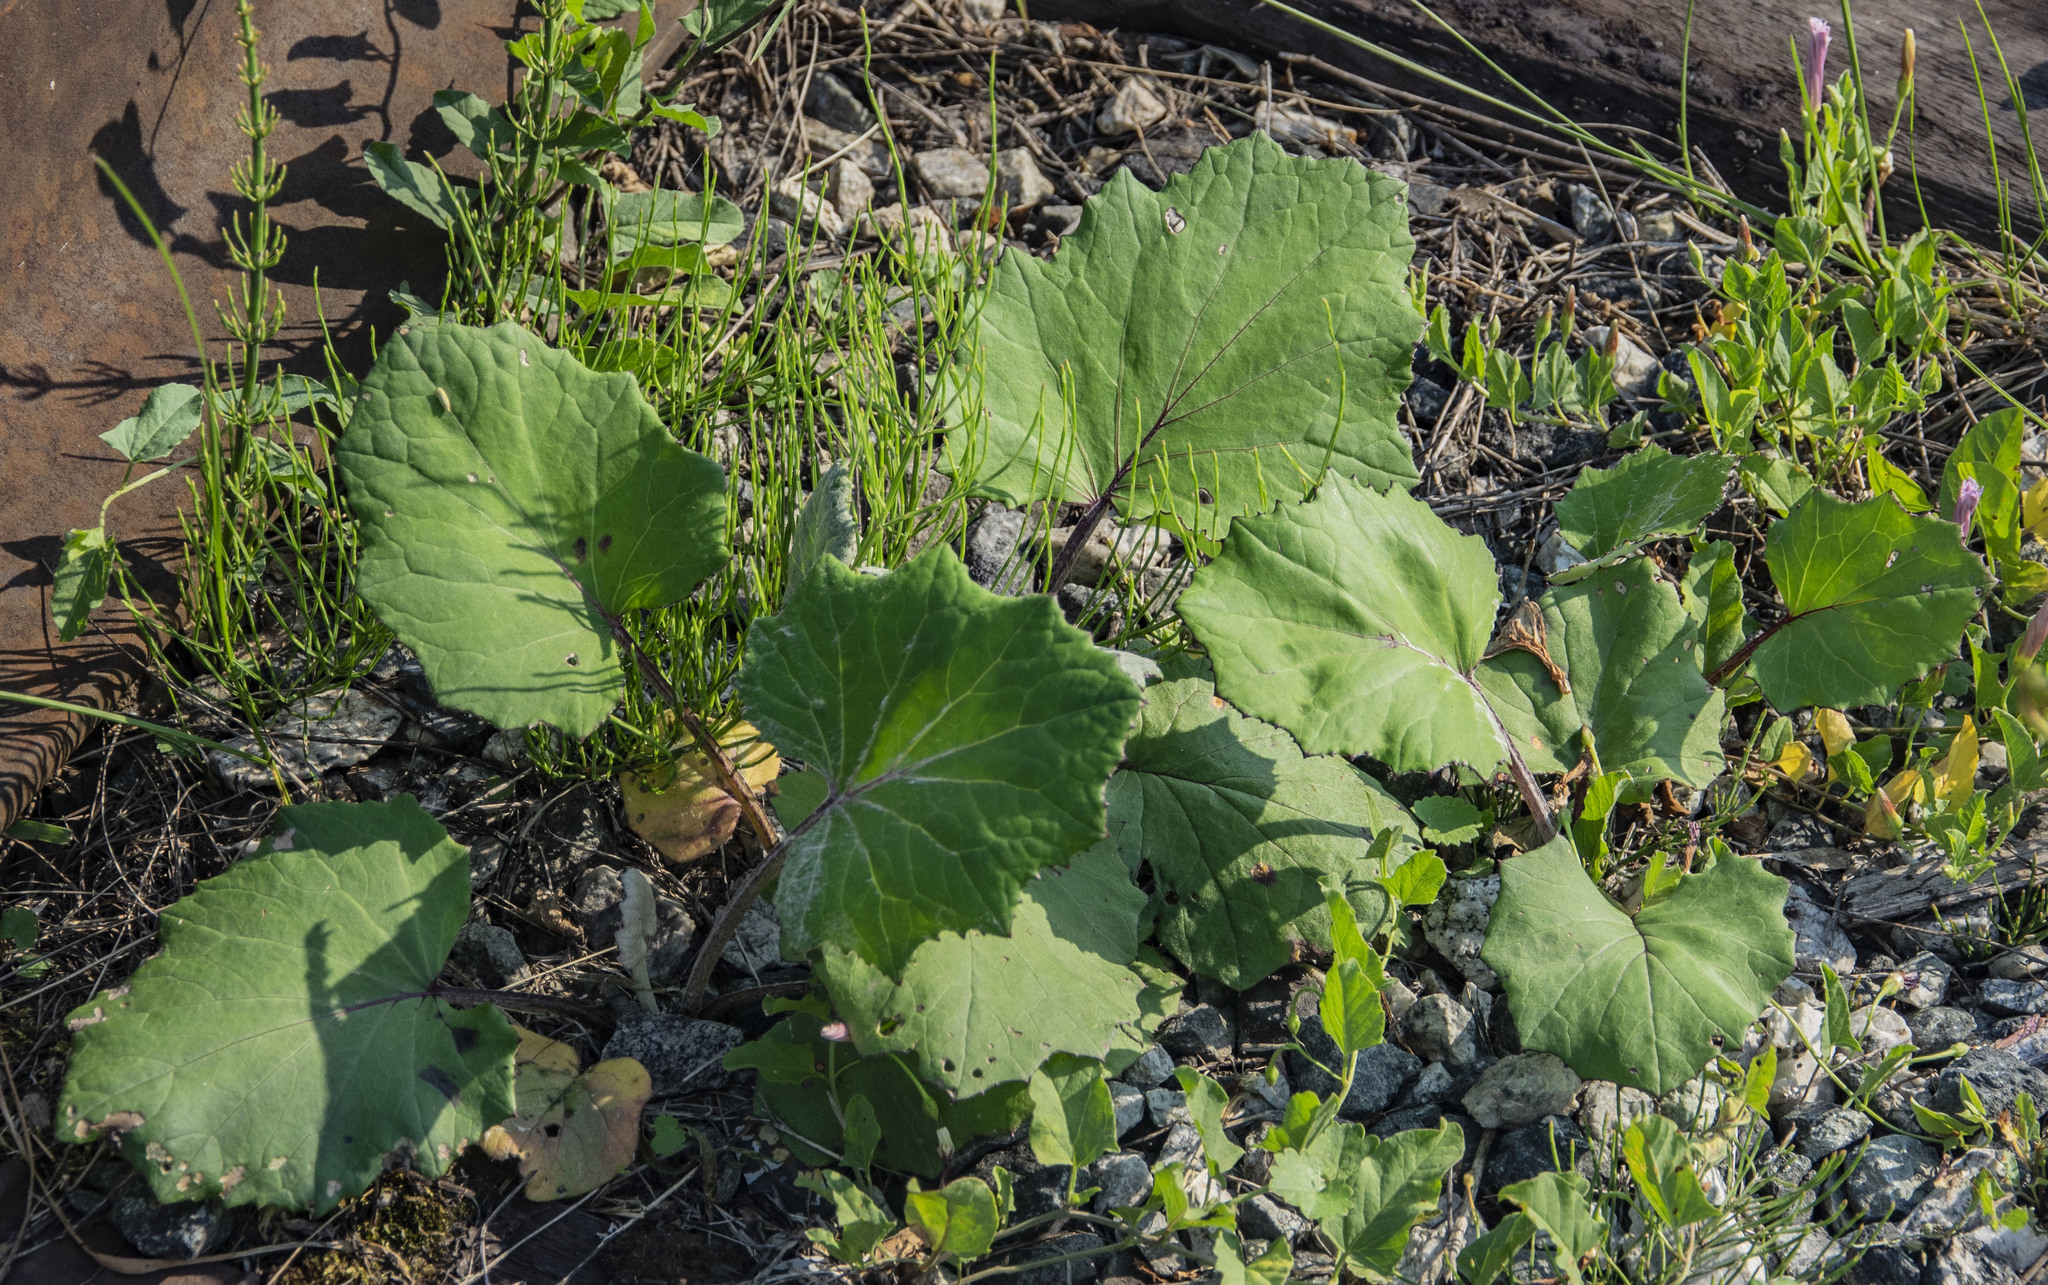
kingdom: Plantae
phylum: Tracheophyta
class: Magnoliopsida
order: Asterales
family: Asteraceae
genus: Tussilago
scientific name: Tussilago farfara
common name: Coltsfoot
